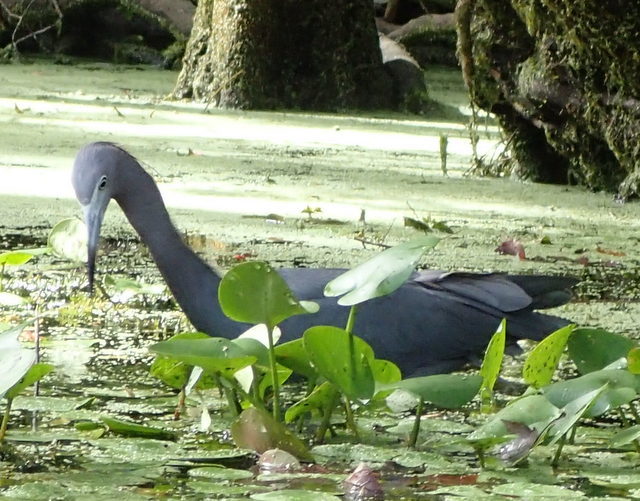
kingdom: Animalia
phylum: Chordata
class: Aves
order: Pelecaniformes
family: Ardeidae
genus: Egretta
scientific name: Egretta caerulea
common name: Little blue heron
